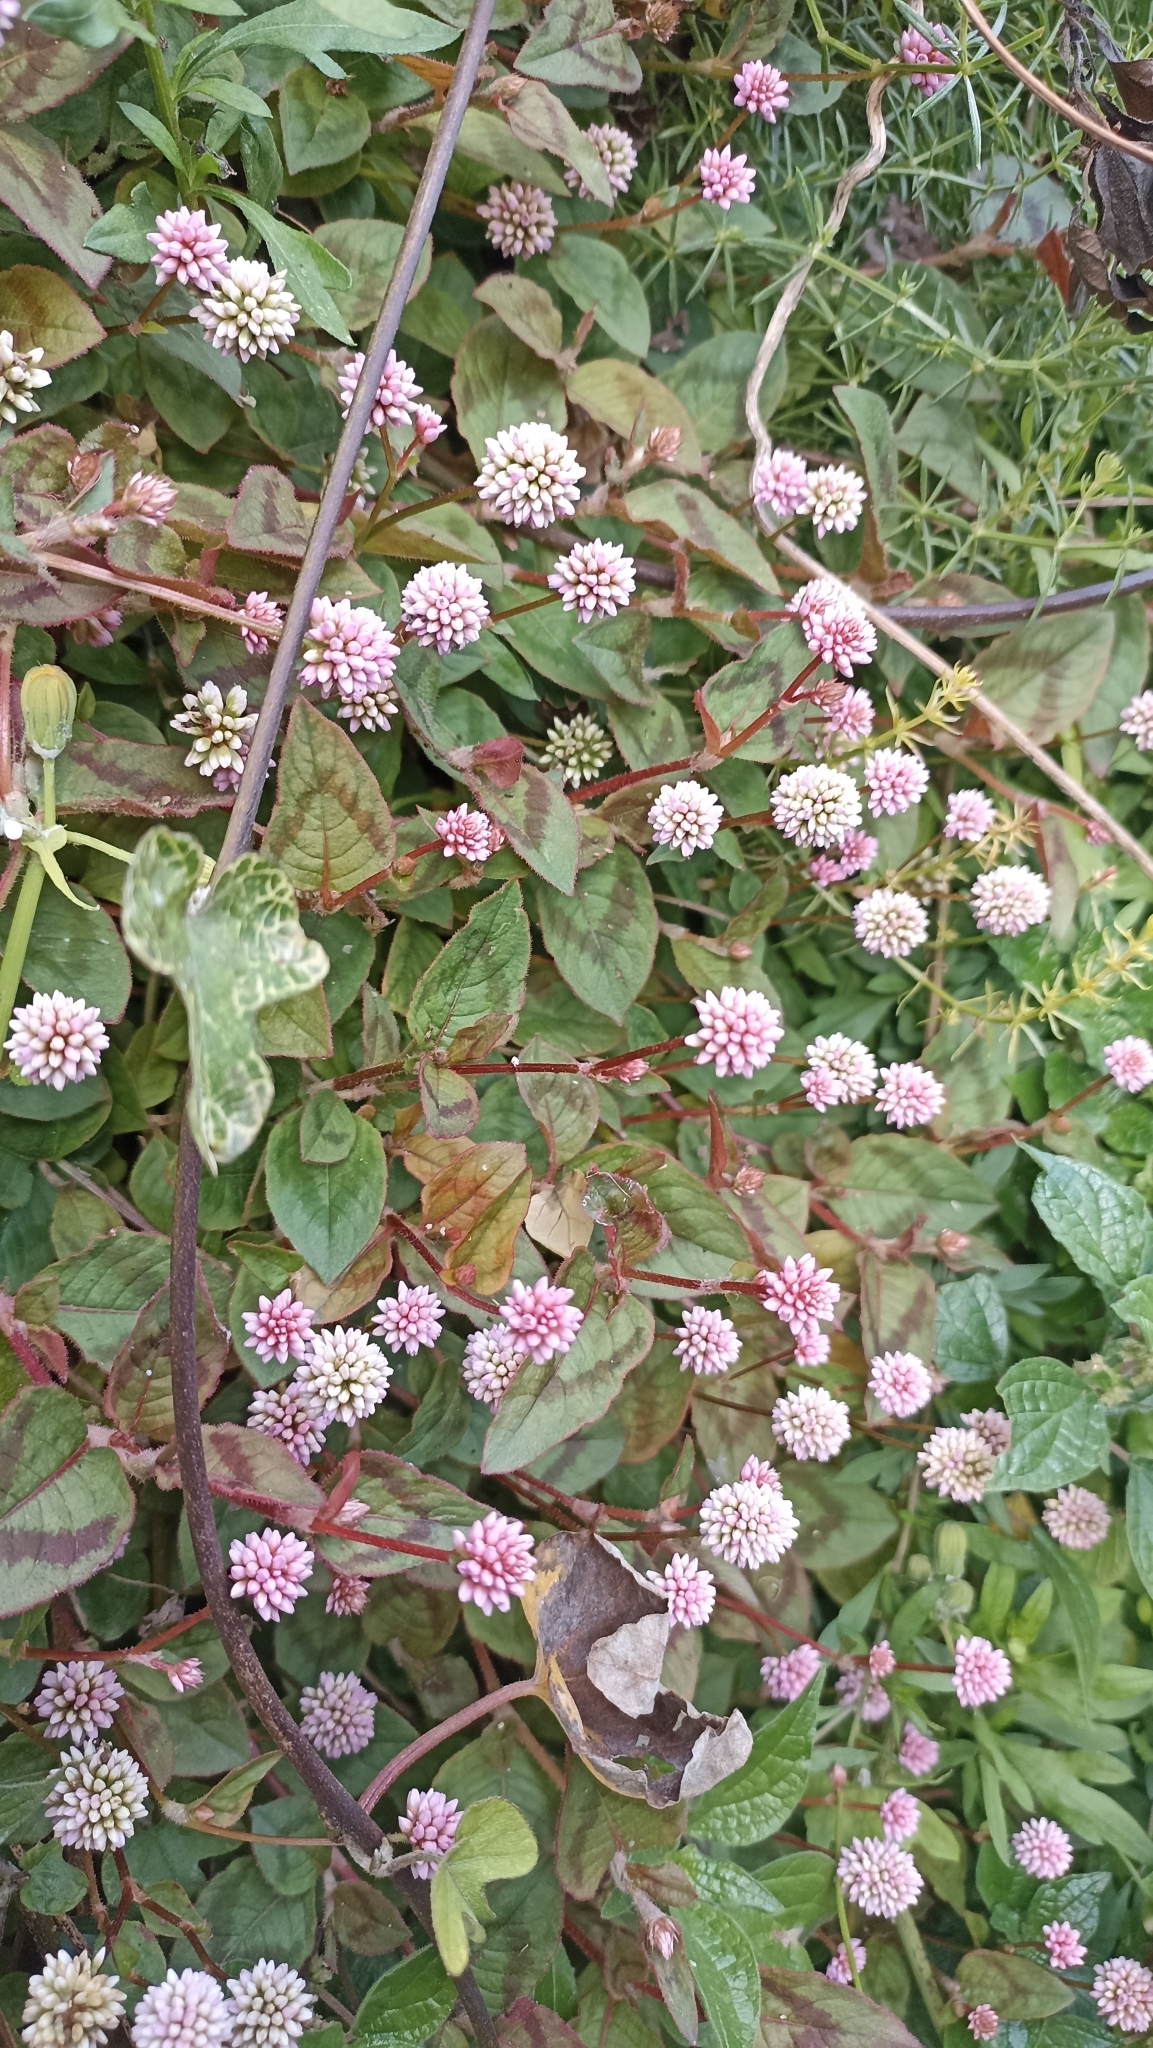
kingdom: Plantae
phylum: Tracheophyta
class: Magnoliopsida
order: Caryophyllales
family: Polygonaceae
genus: Persicaria
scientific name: Persicaria capitata
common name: Pinkhead smartweed
